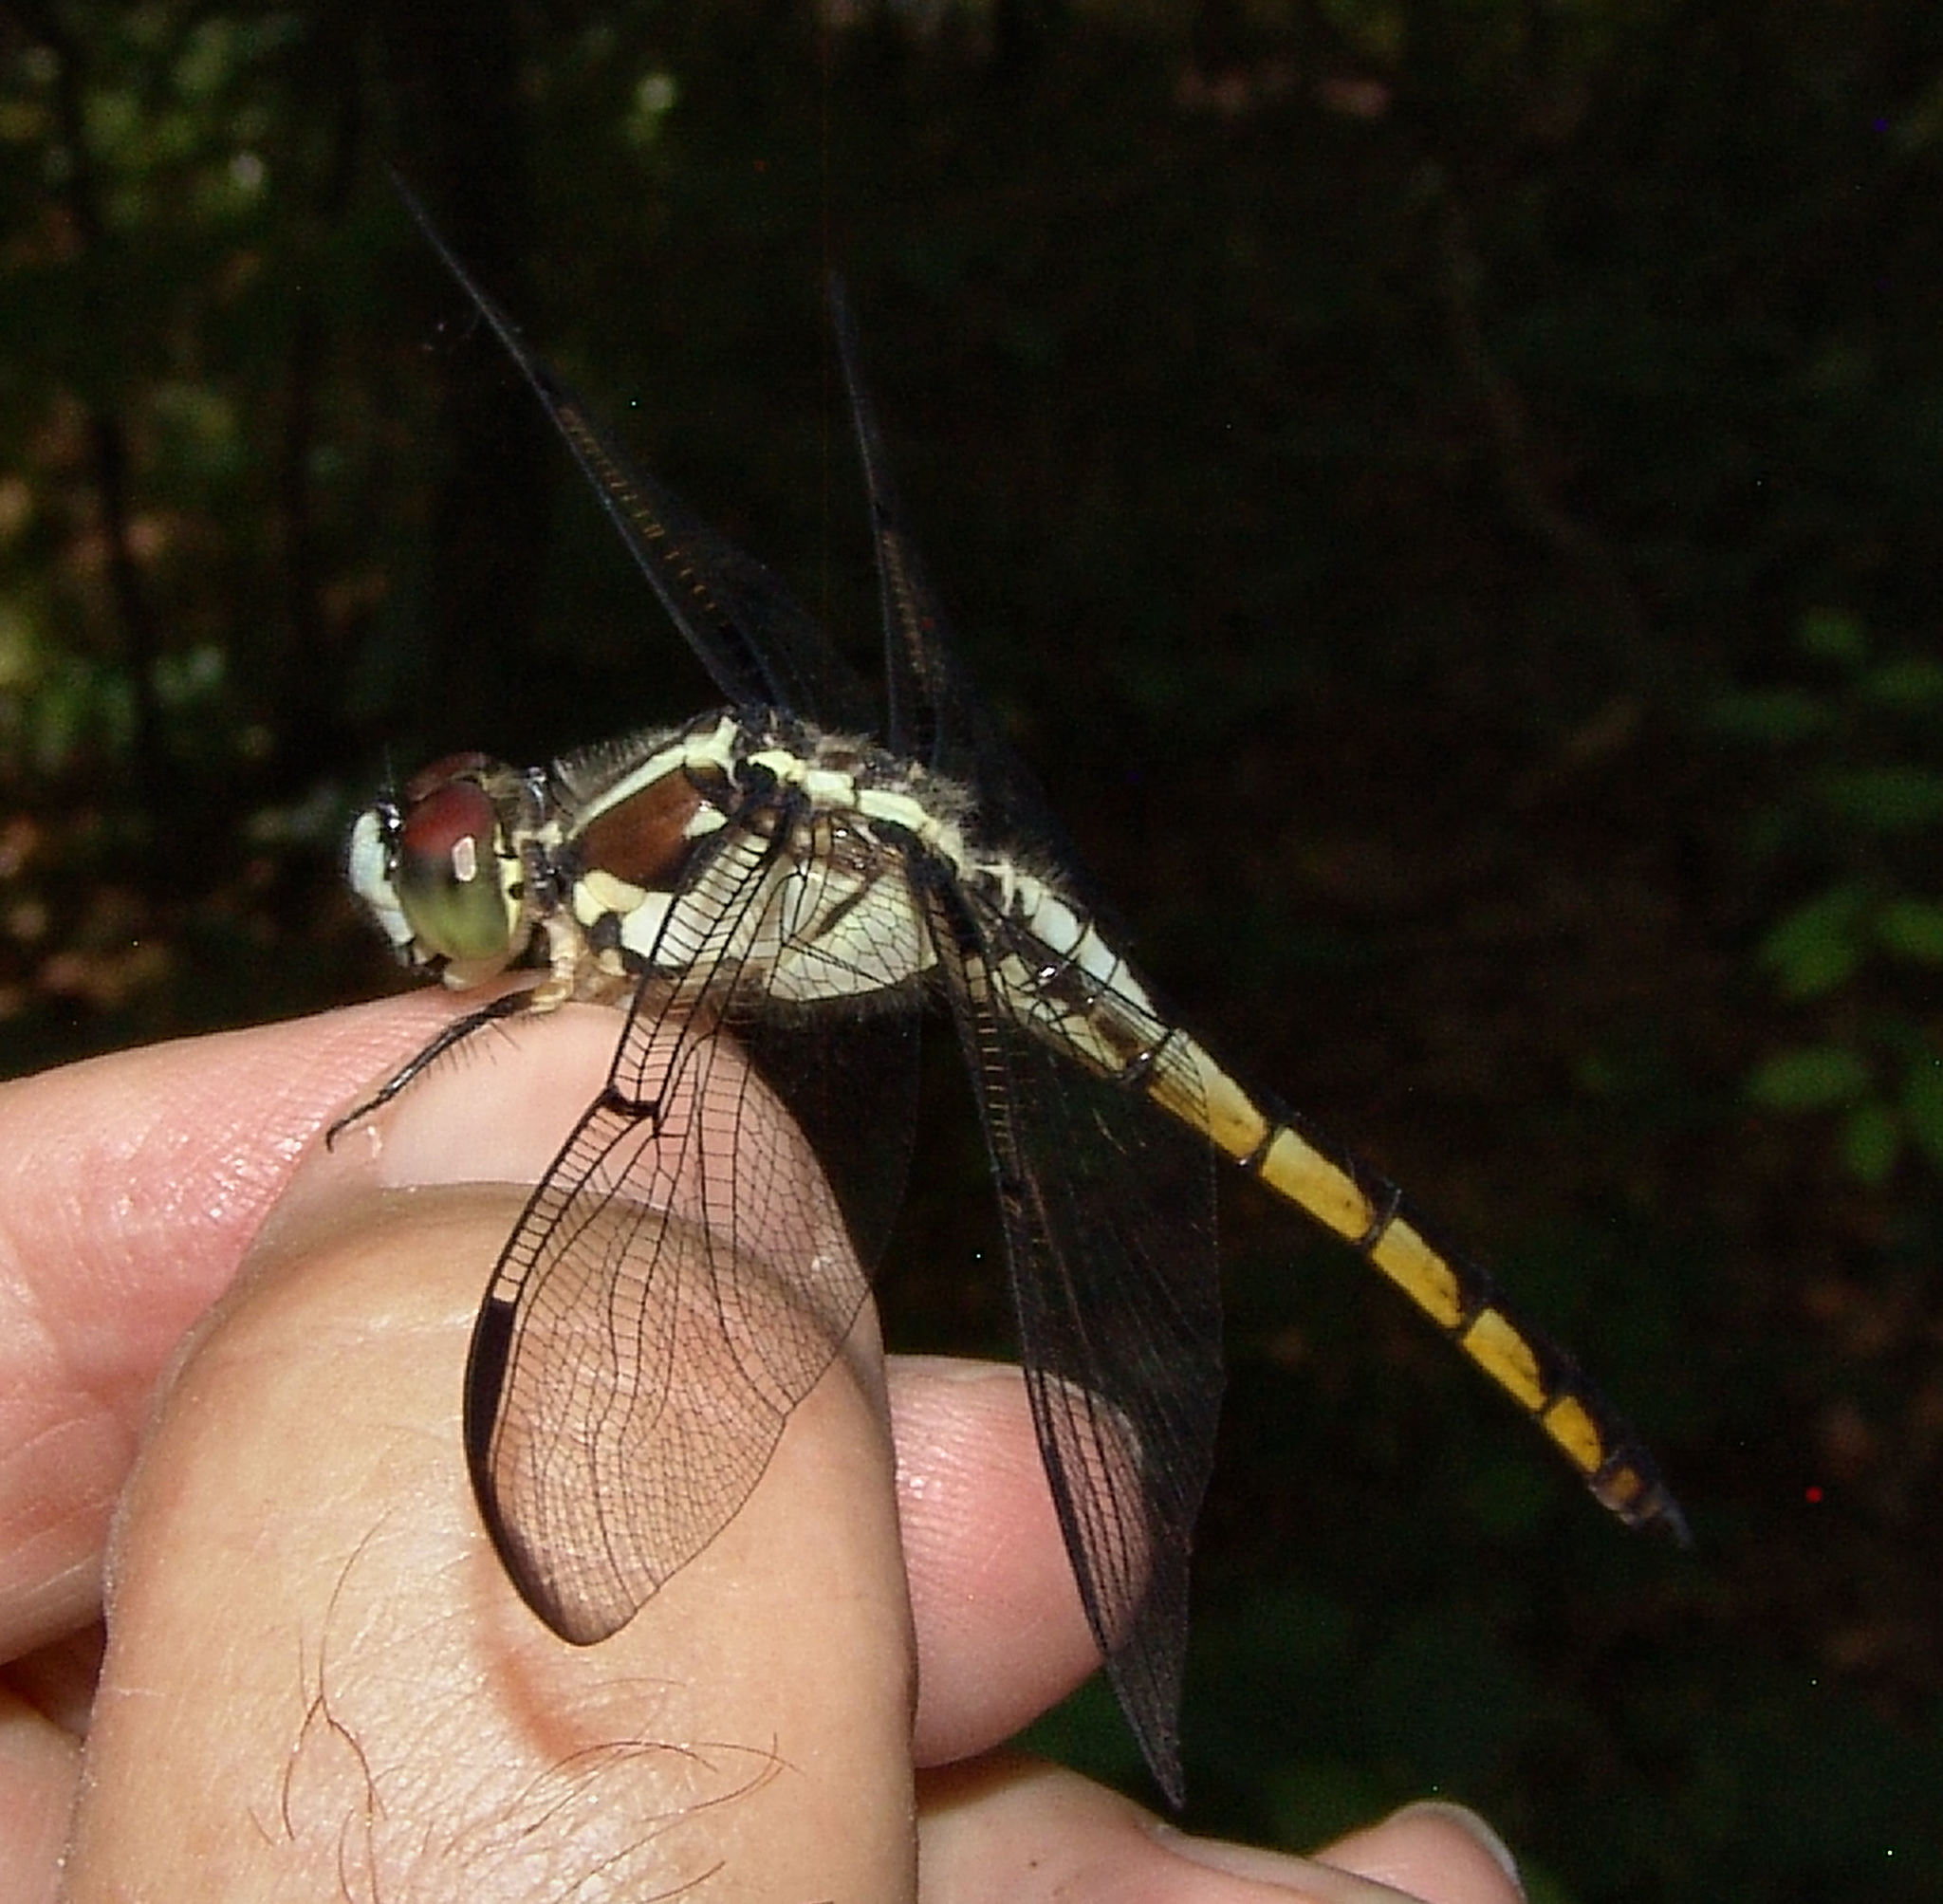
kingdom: Animalia
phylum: Arthropoda
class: Insecta
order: Odonata
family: Libellulidae
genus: Libellula
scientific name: Libellula vibrans
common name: Great blue skimmer
